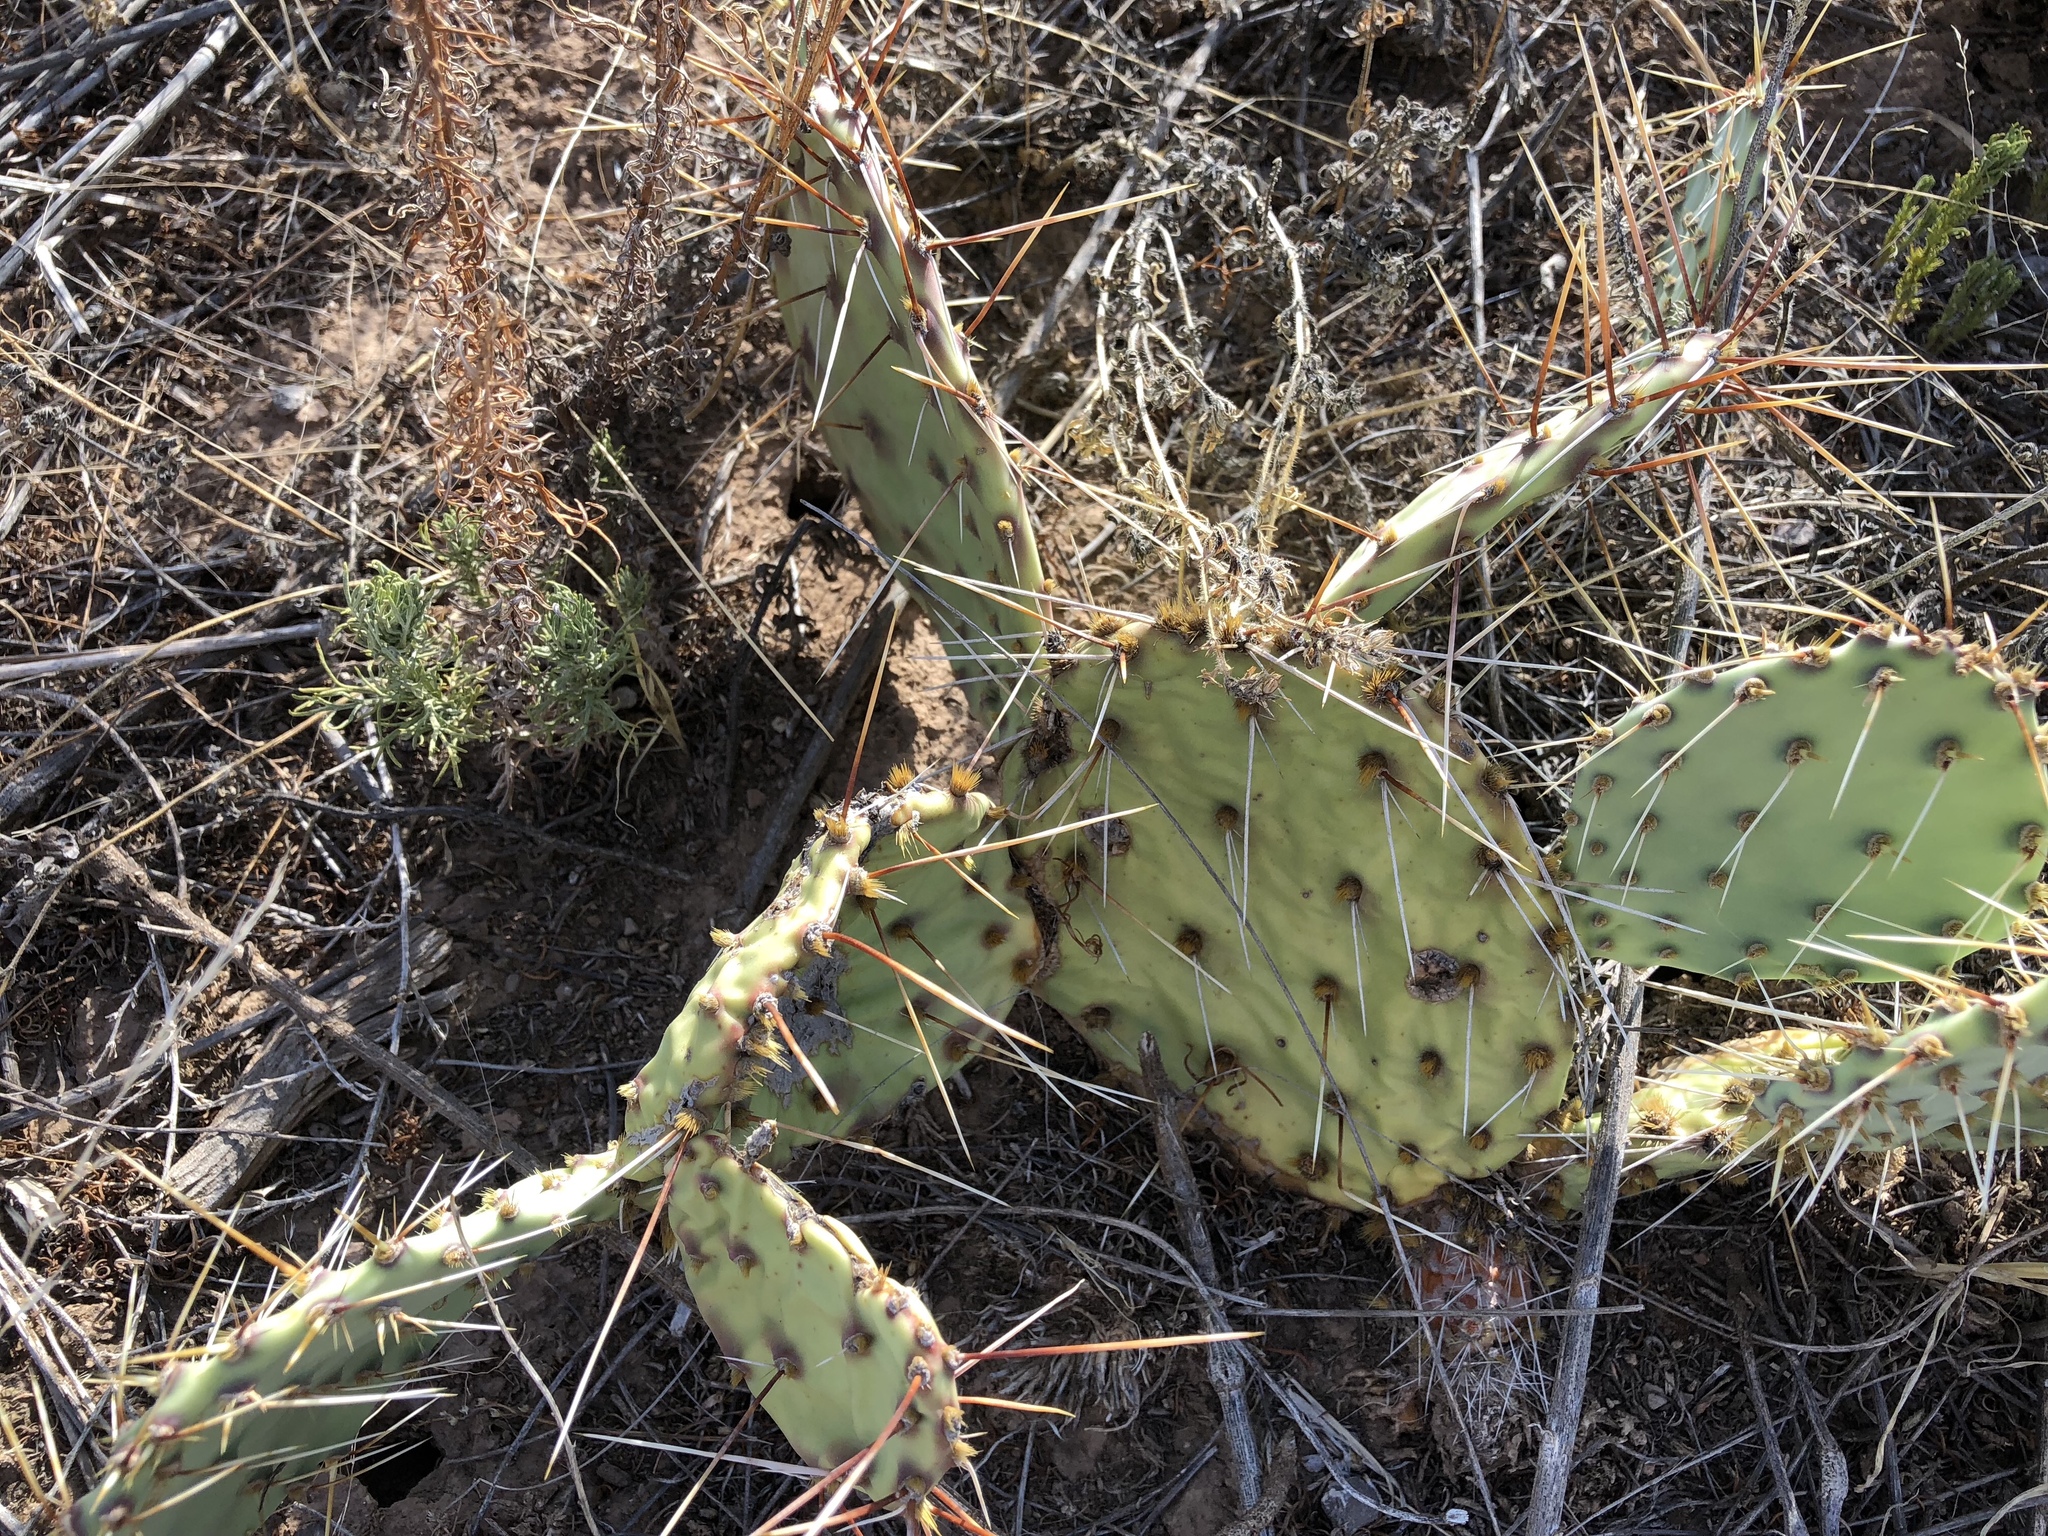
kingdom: Plantae
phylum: Tracheophyta
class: Magnoliopsida
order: Caryophyllales
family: Cactaceae
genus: Opuntia
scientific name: Opuntia phaeacantha
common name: New mexico prickly-pear
